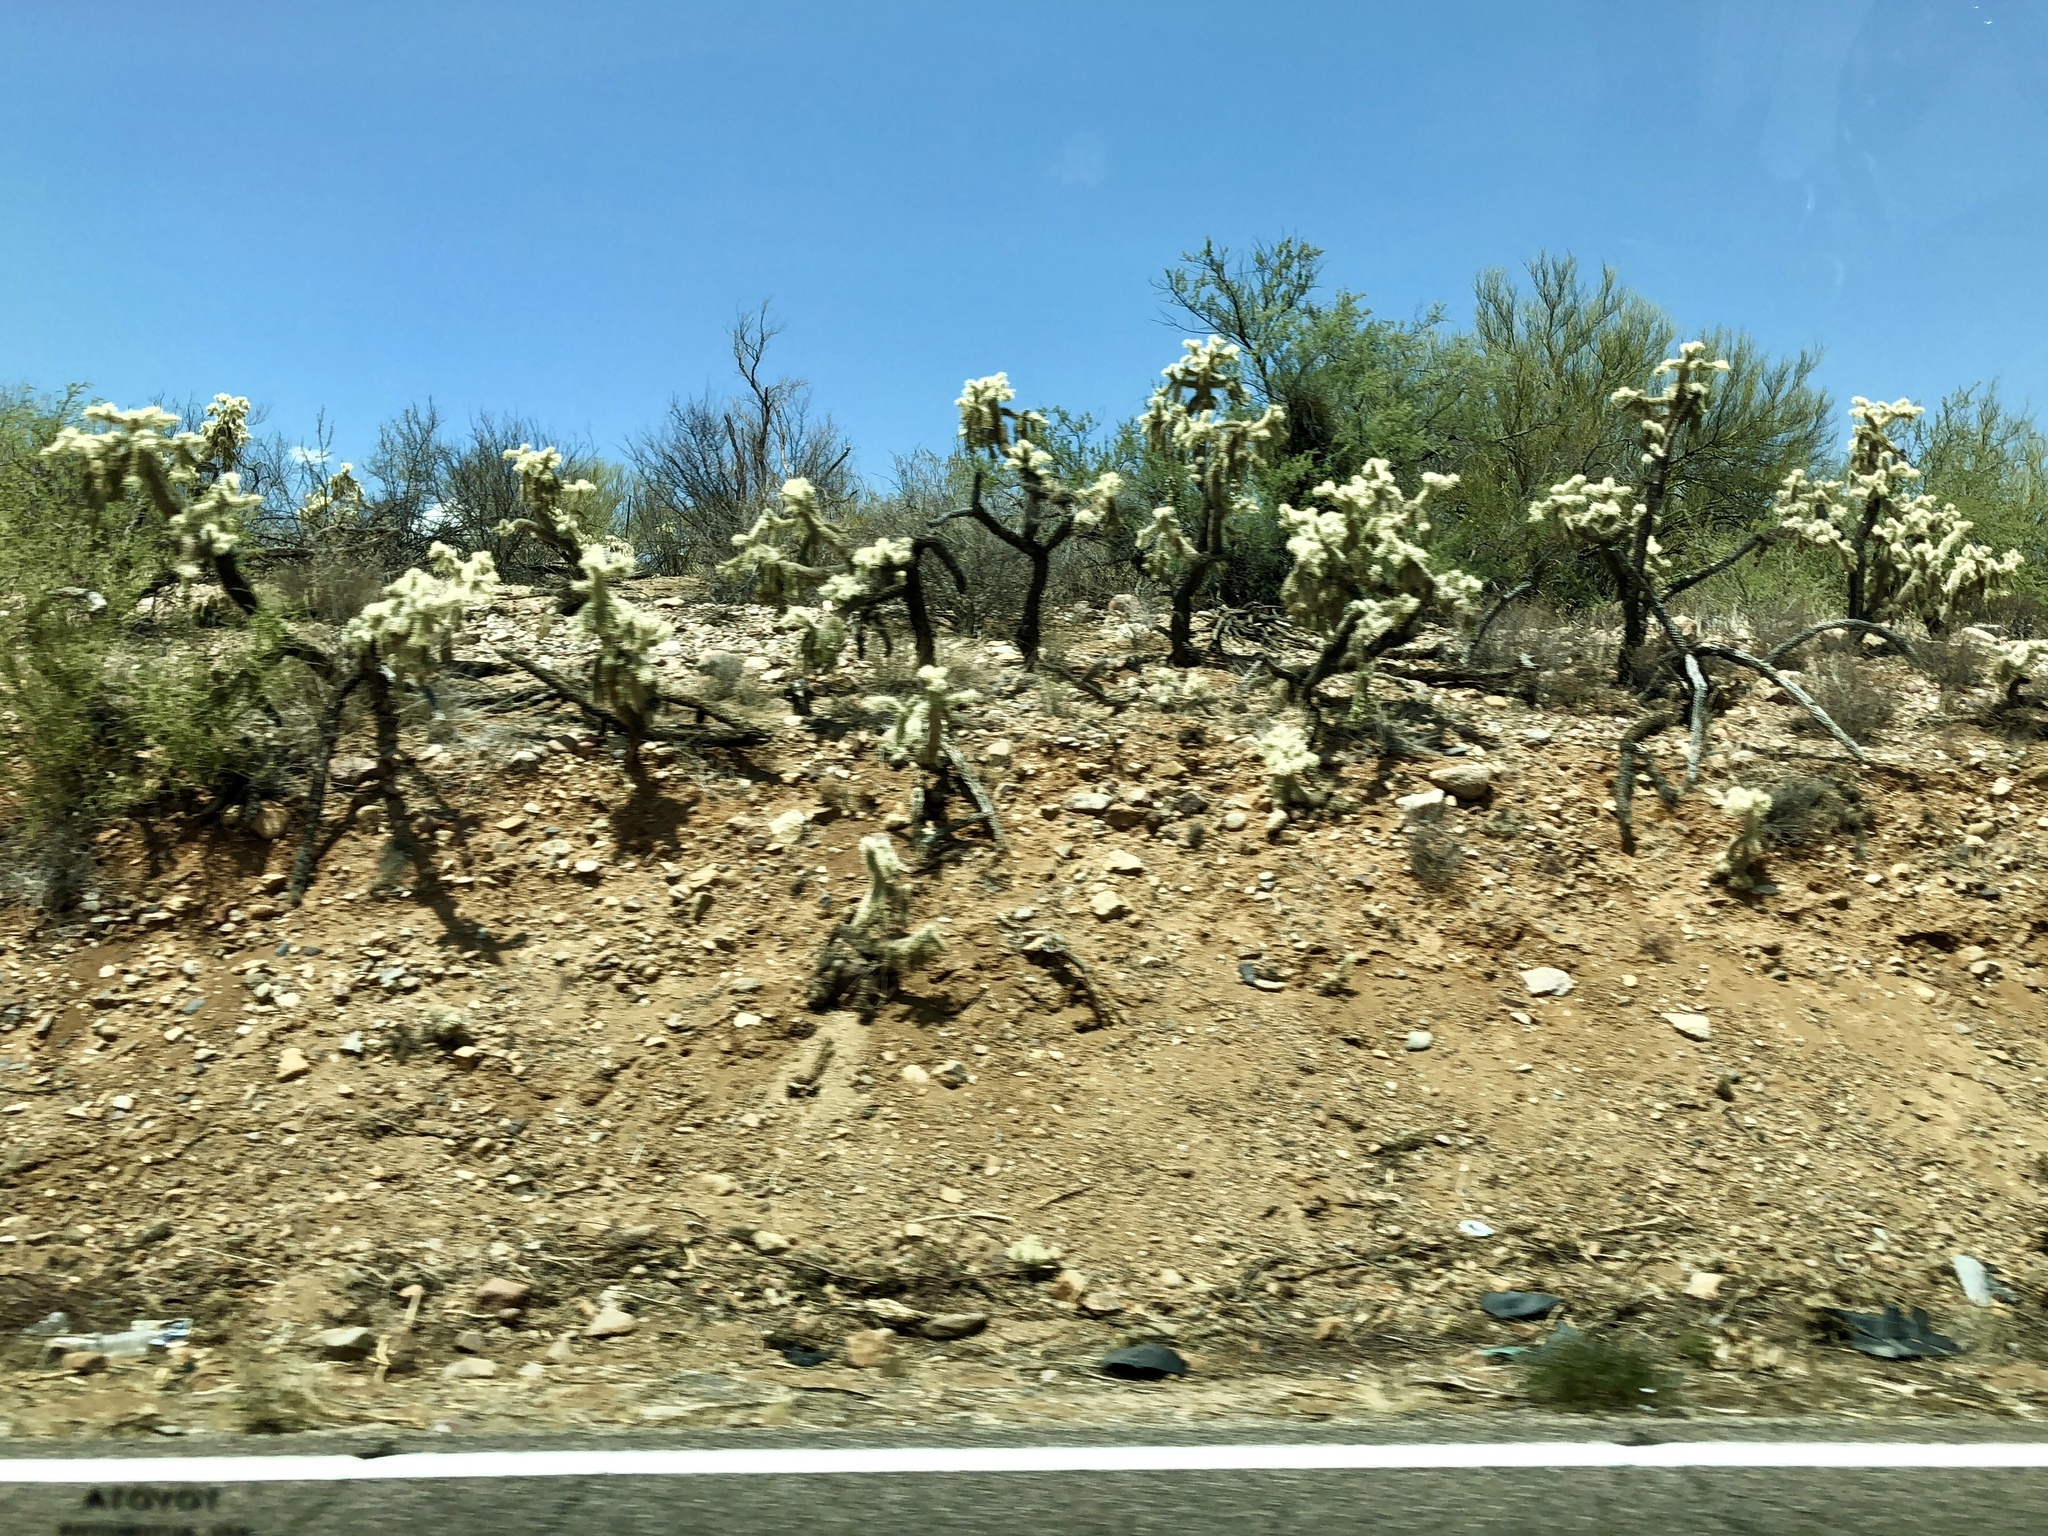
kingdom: Plantae
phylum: Tracheophyta
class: Magnoliopsida
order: Caryophyllales
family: Cactaceae
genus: Cylindropuntia
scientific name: Cylindropuntia fulgida
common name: Jumping cholla
